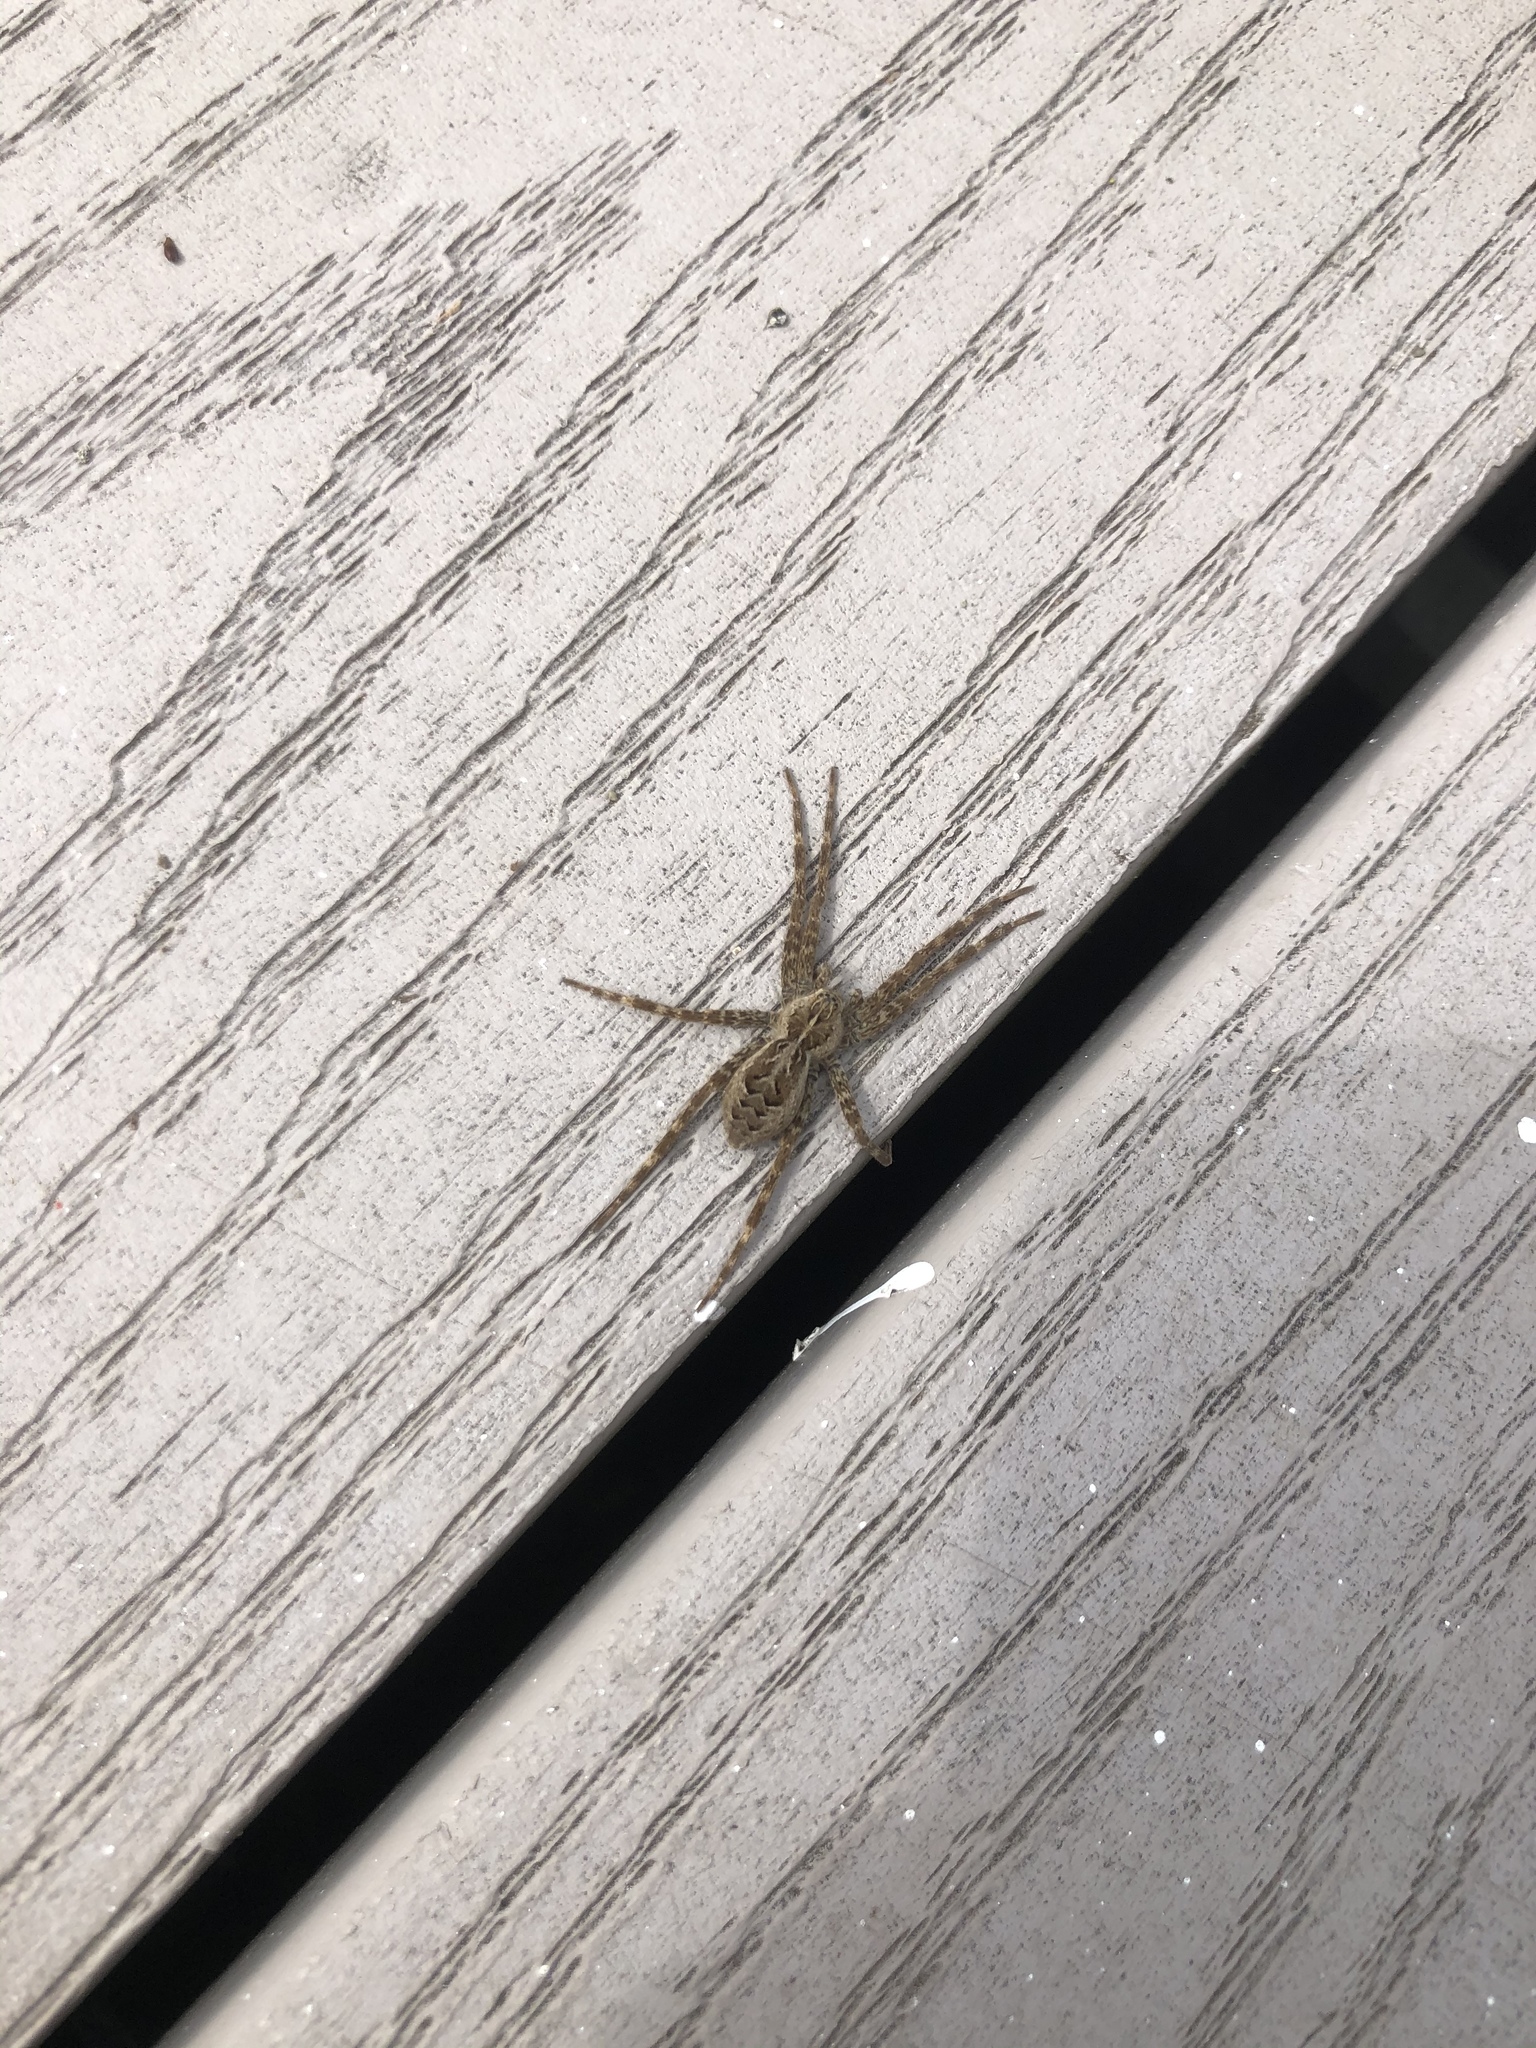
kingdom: Animalia
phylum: Arthropoda
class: Arachnida
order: Araneae
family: Pisauridae
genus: Dolomedes
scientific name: Dolomedes scriptus
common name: Striped fishing spider
